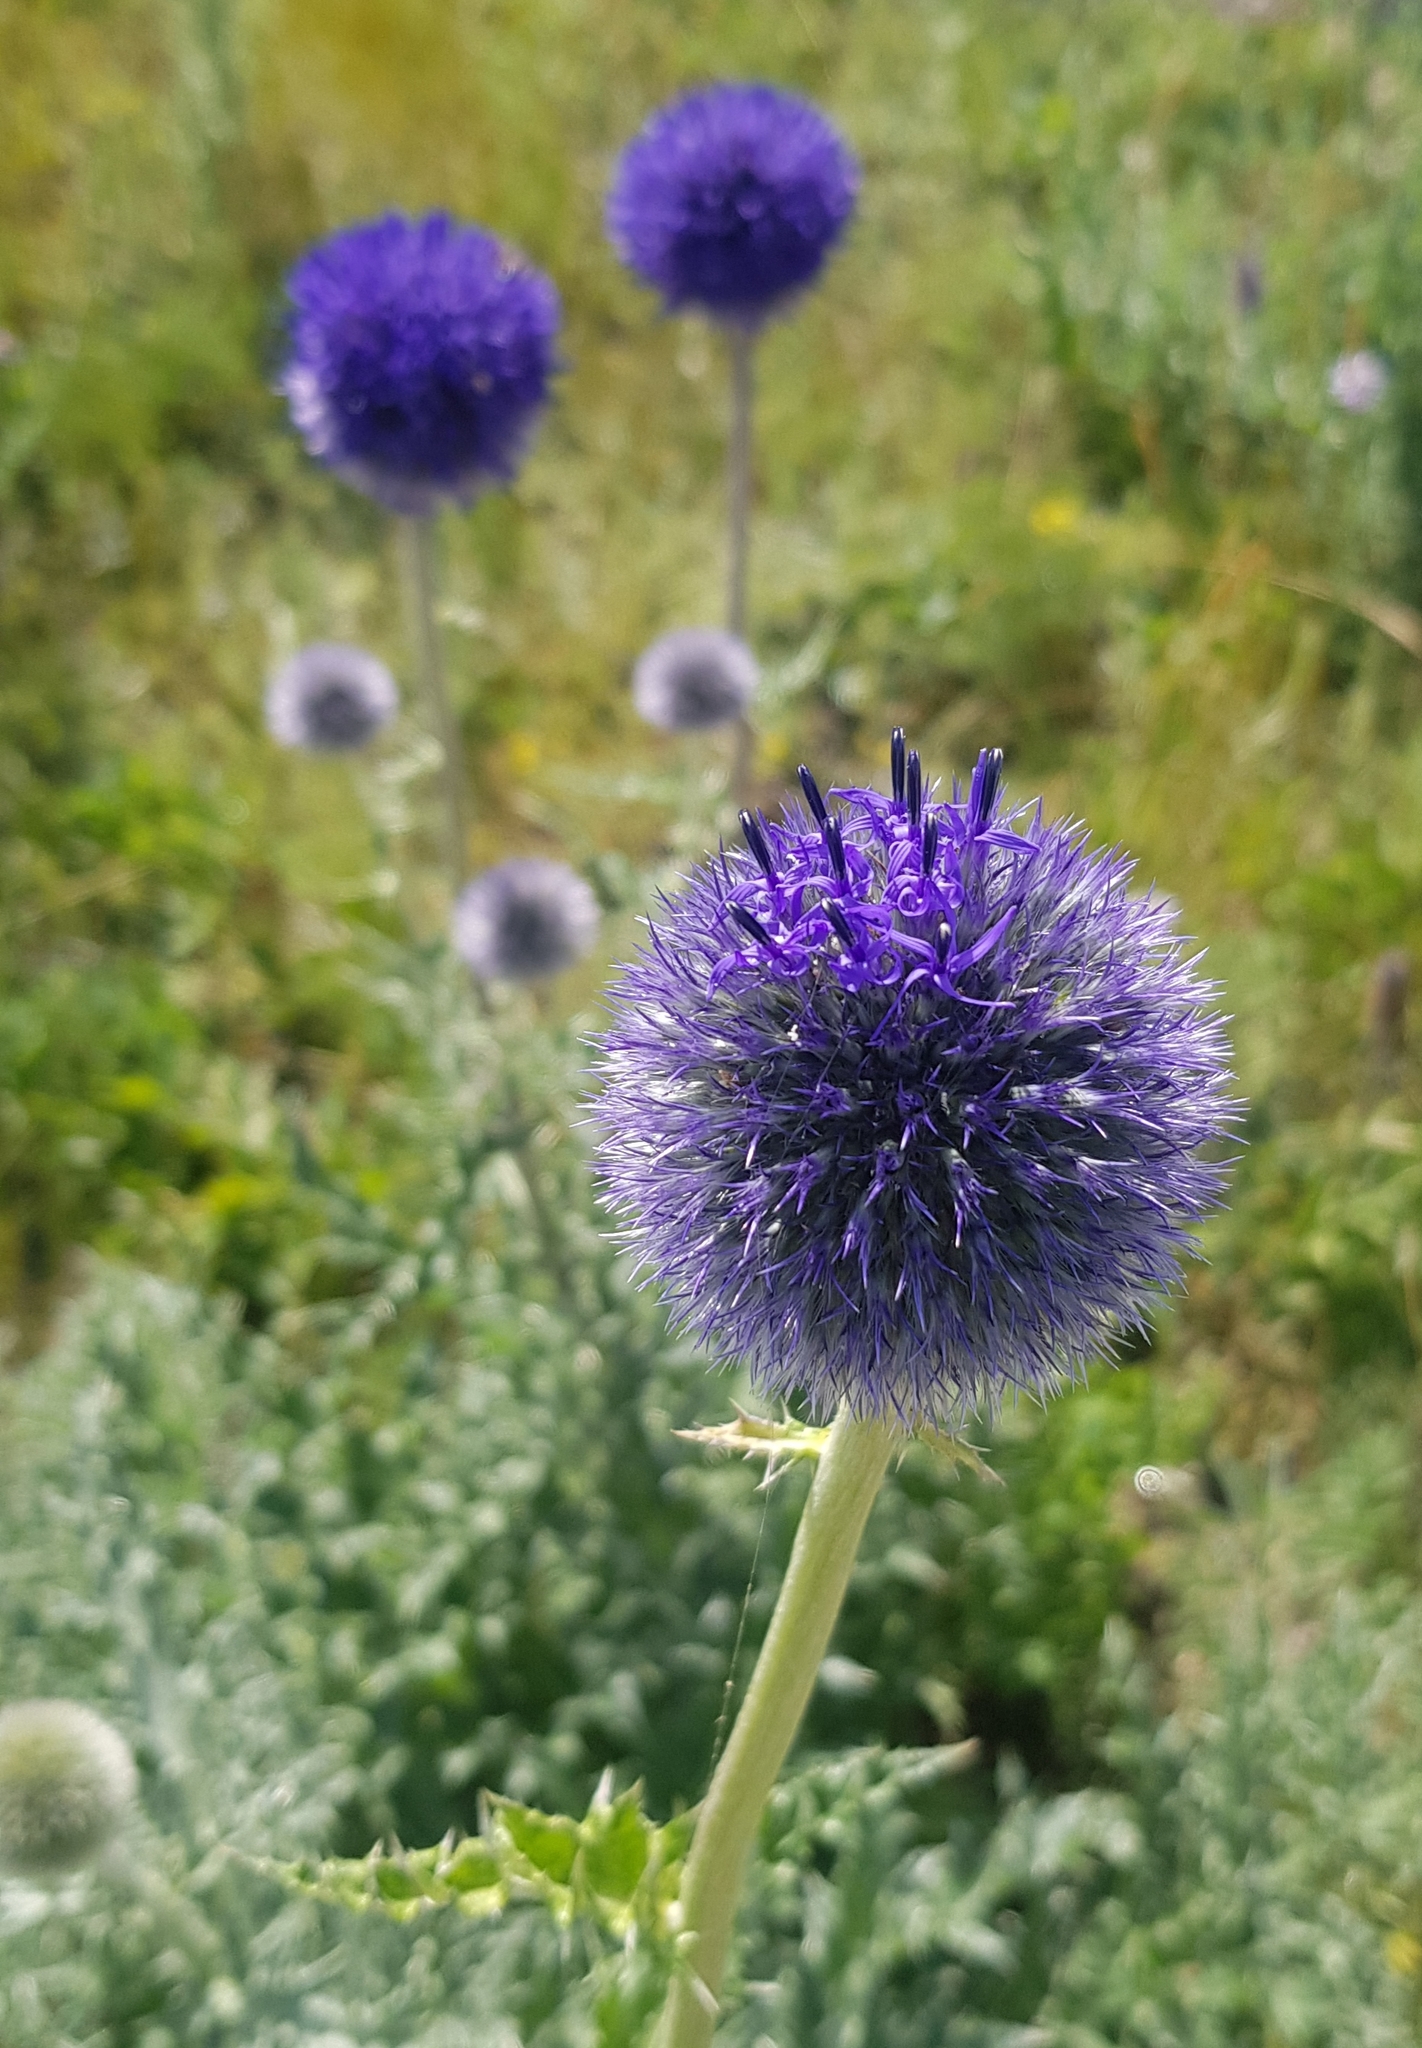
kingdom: Plantae
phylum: Tracheophyta
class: Magnoliopsida
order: Asterales
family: Asteraceae
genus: Echinops
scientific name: Echinops davuricus
